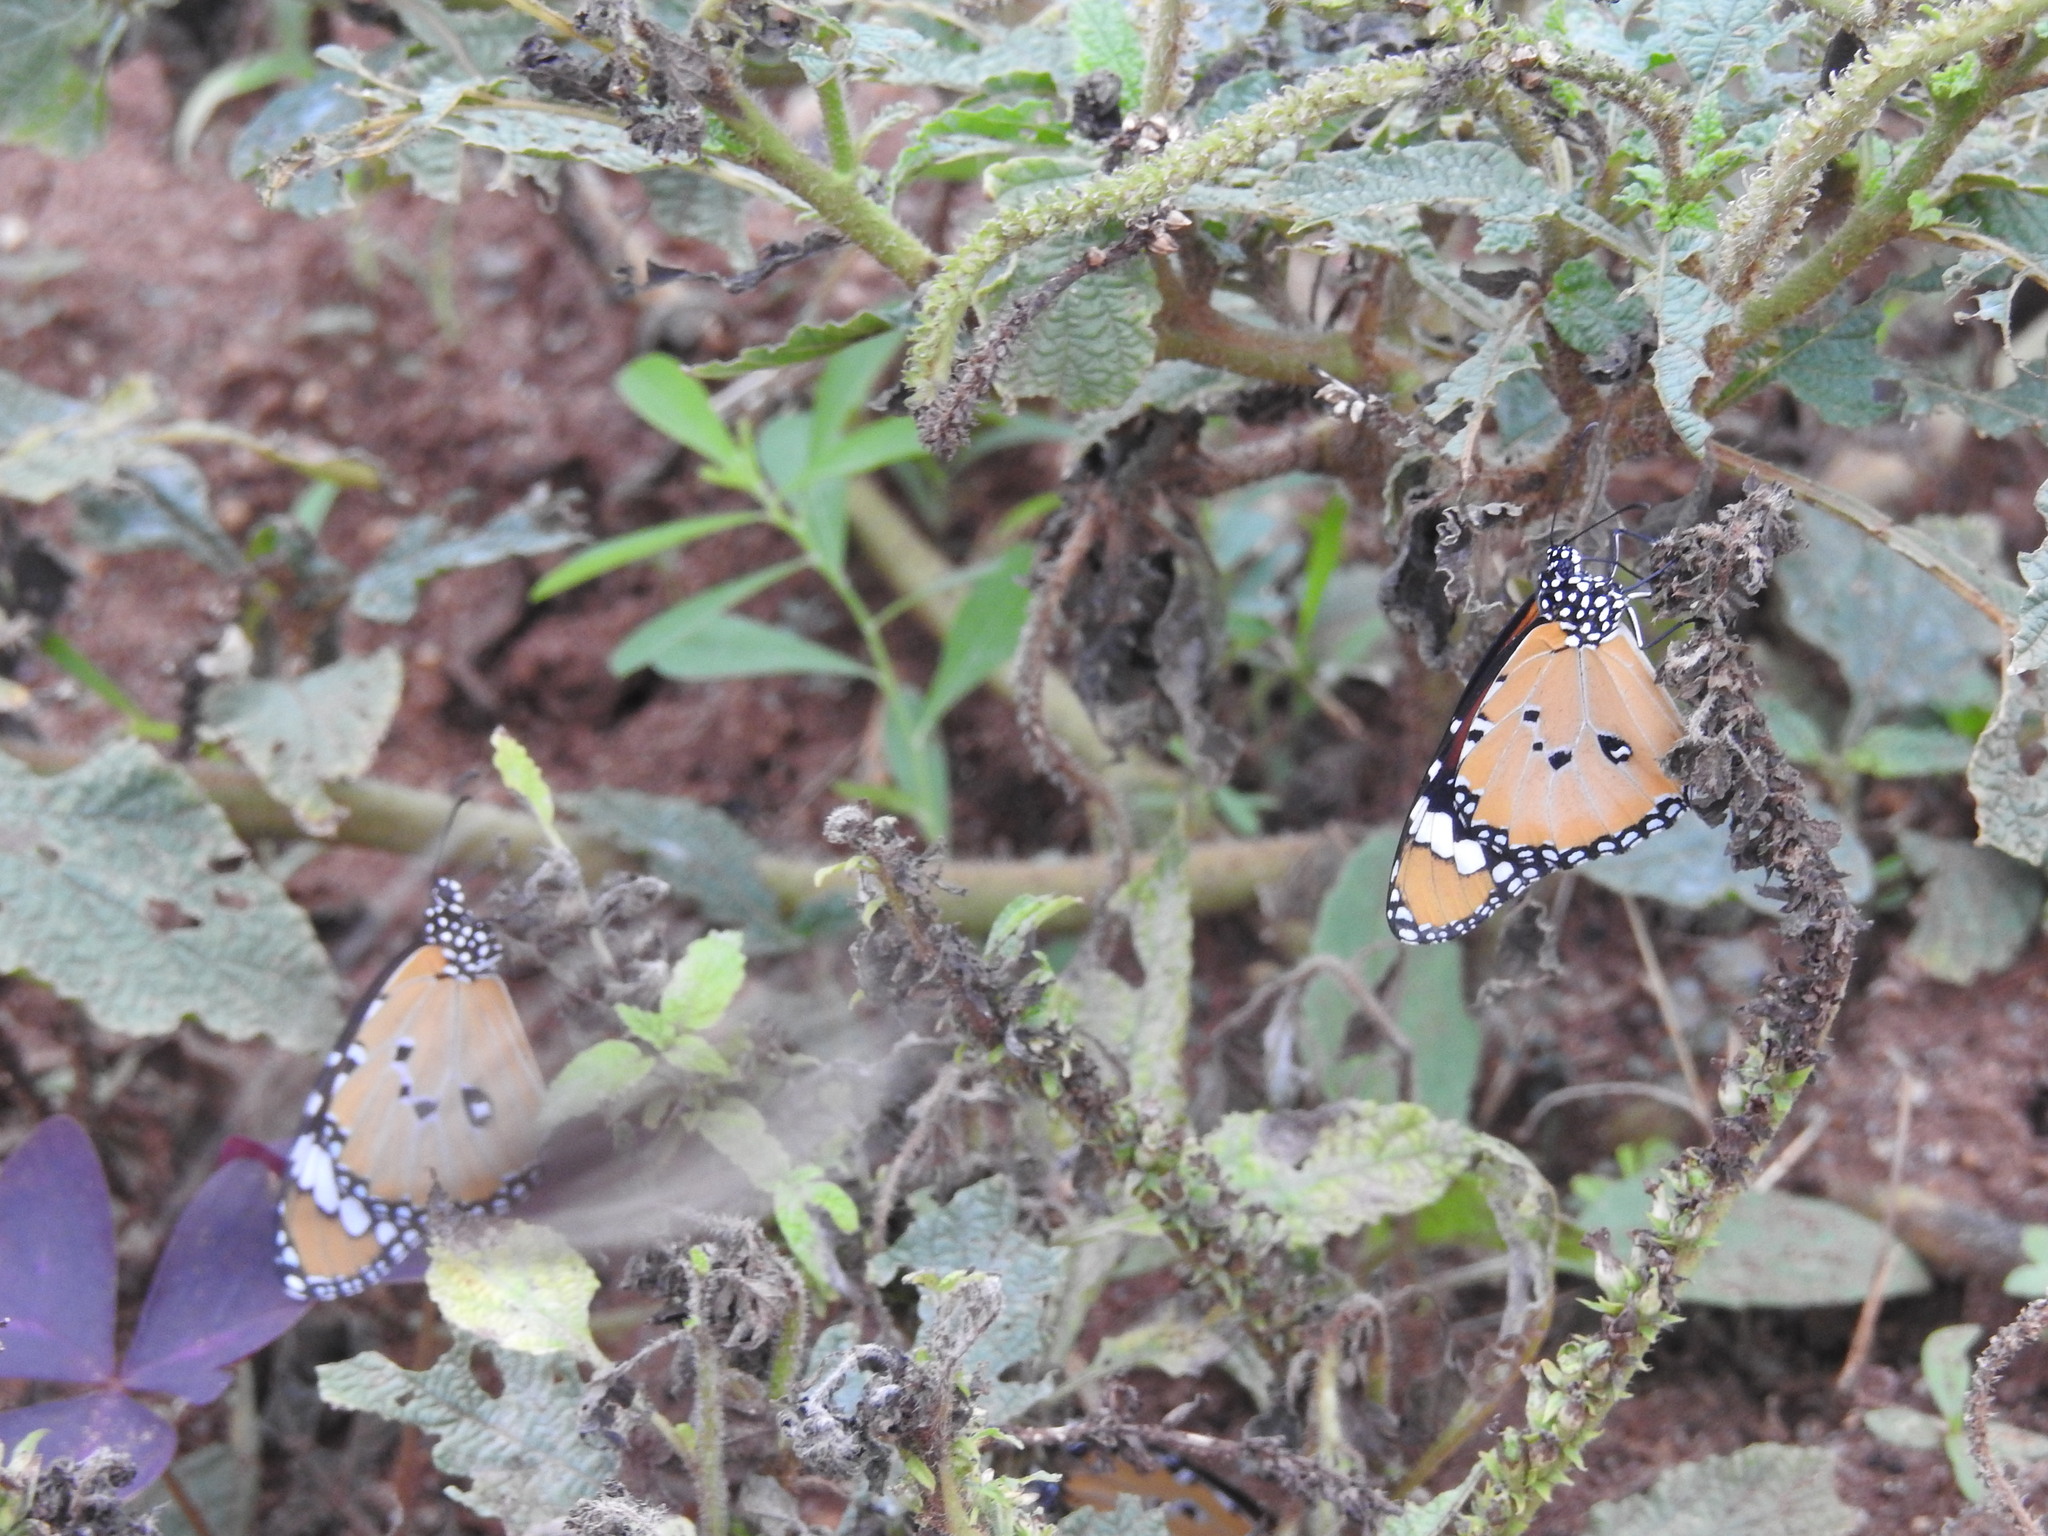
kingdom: Animalia
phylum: Arthropoda
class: Insecta
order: Lepidoptera
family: Nymphalidae
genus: Danaus
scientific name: Danaus chrysippus
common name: Plain tiger
